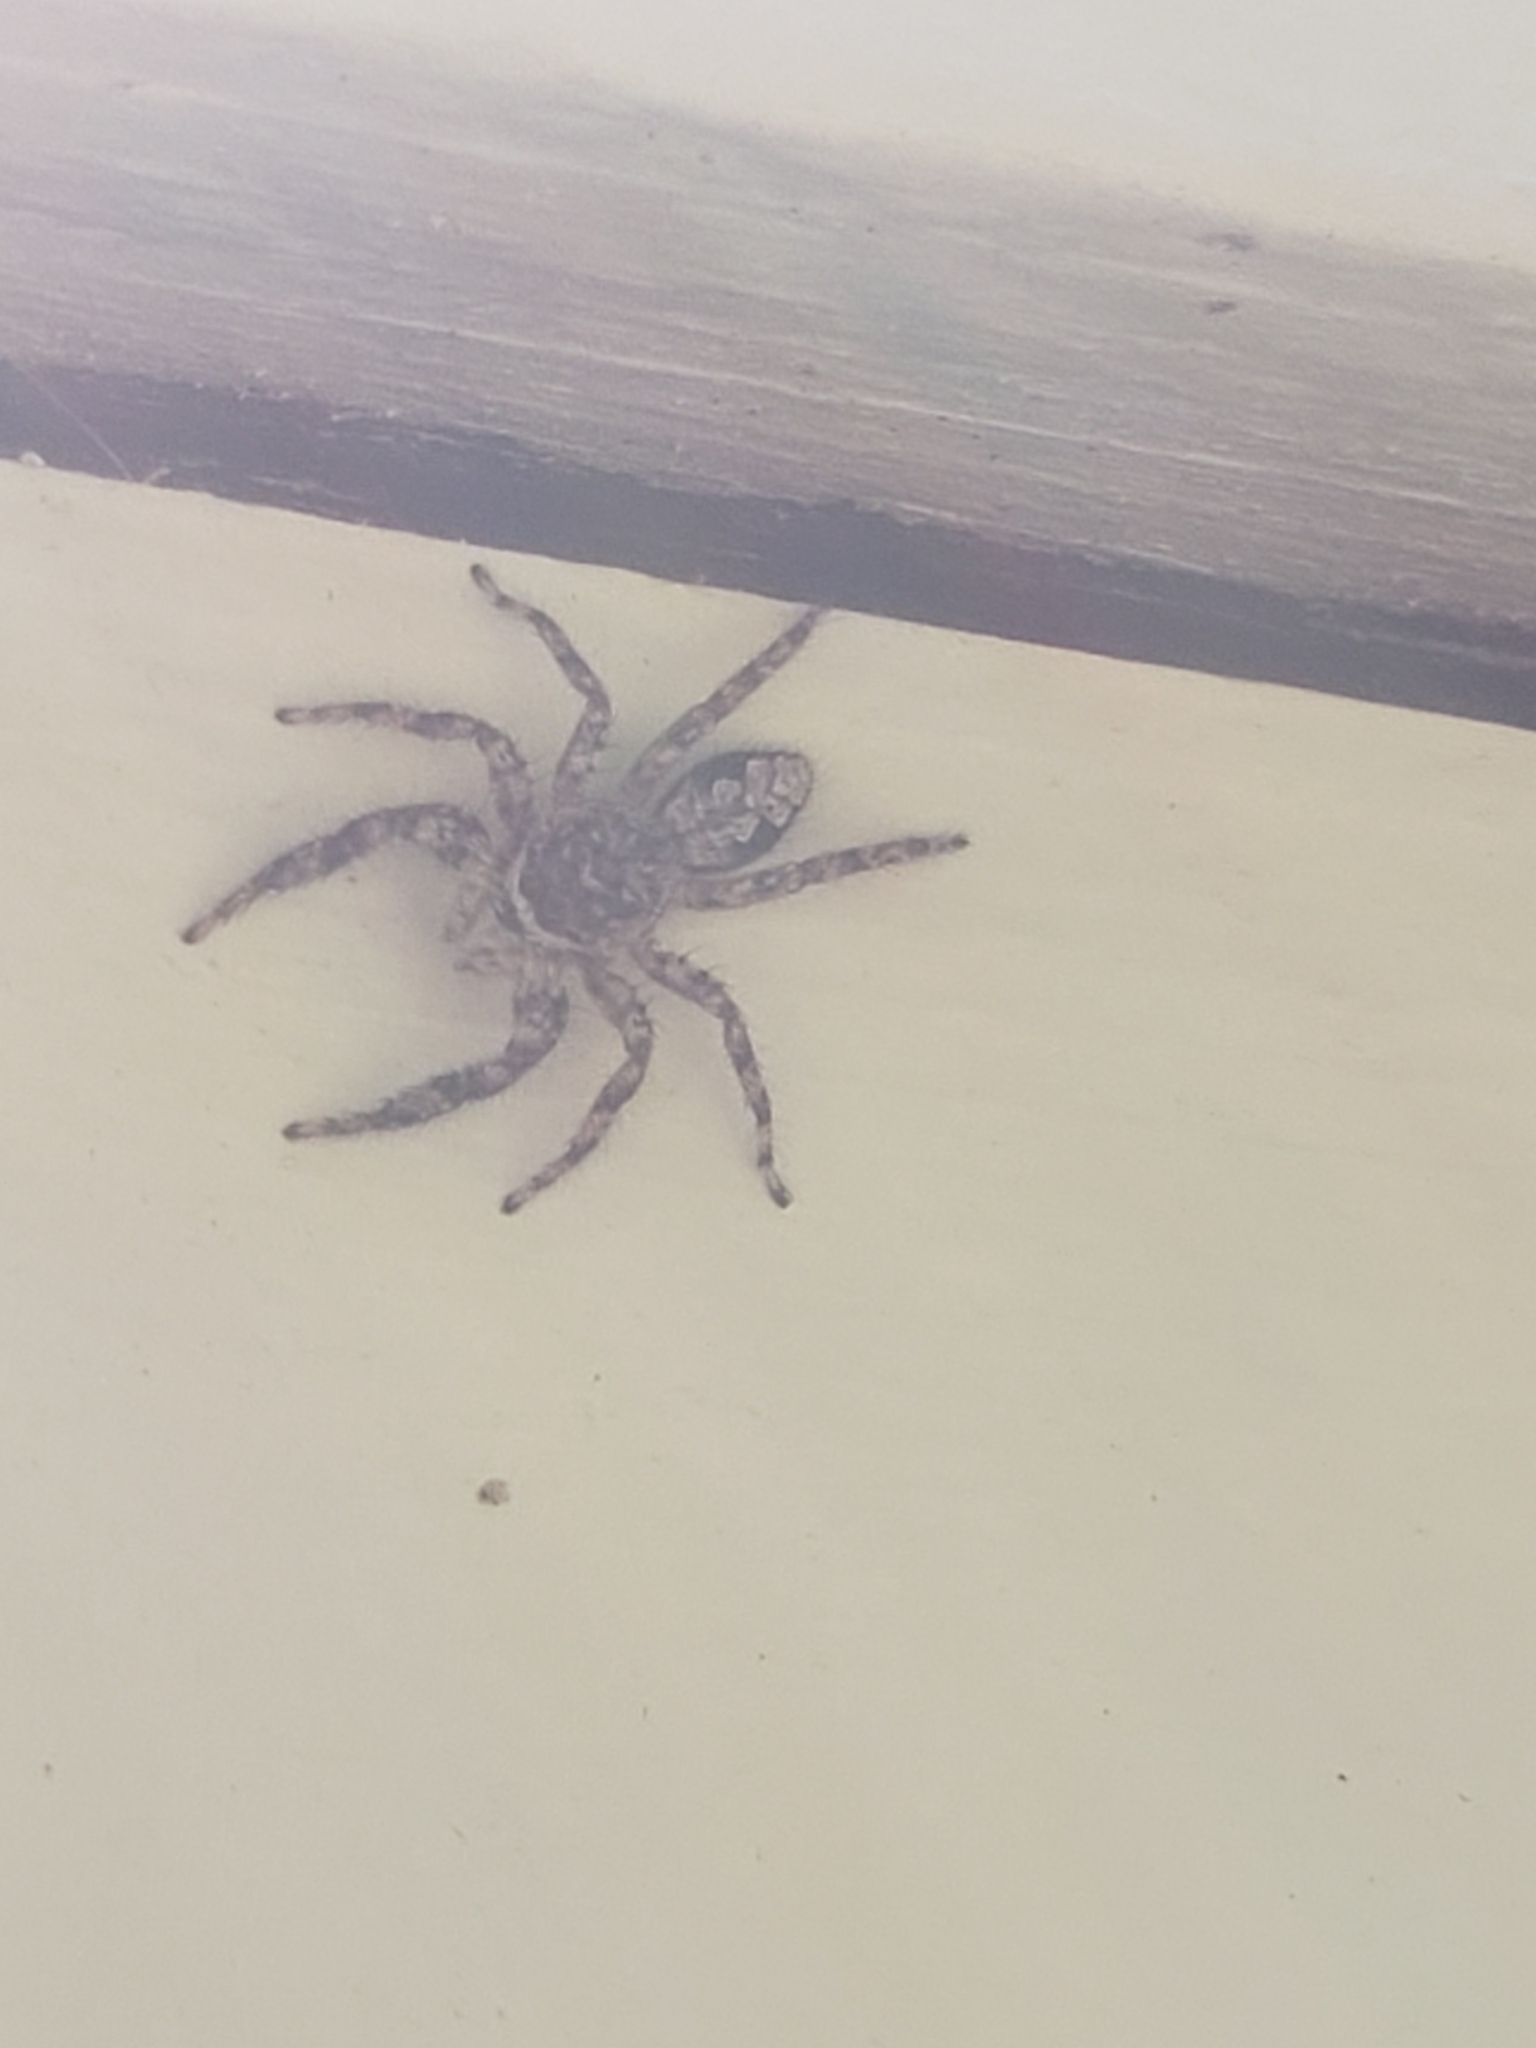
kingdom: Animalia
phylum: Arthropoda
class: Arachnida
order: Araneae
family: Salticidae
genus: Platycryptus
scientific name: Platycryptus undatus
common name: Tan jumping spider
